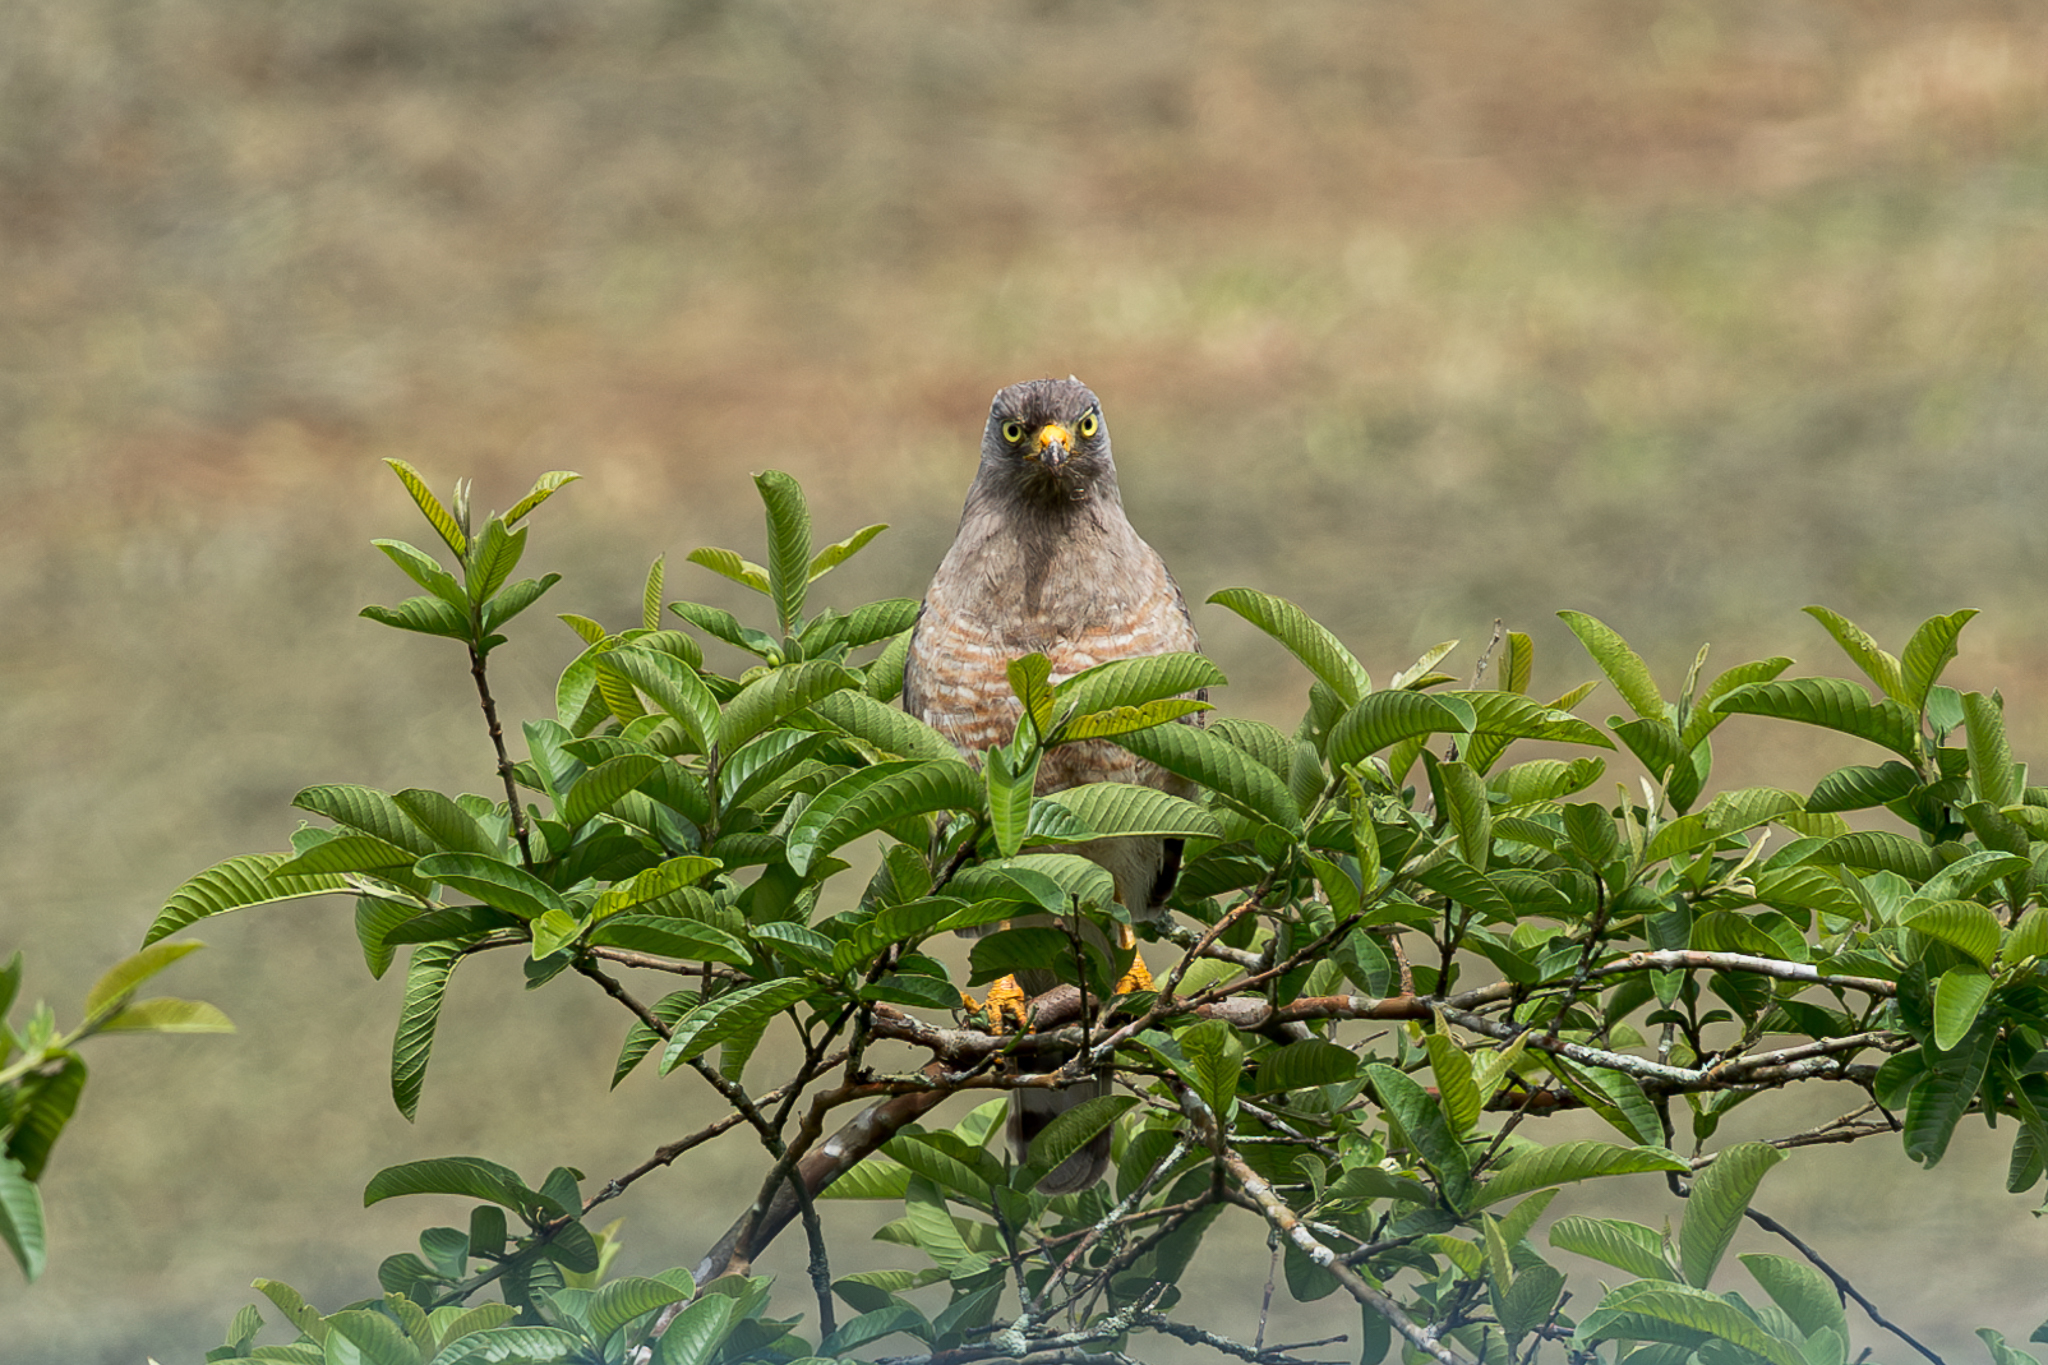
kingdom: Animalia
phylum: Chordata
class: Aves
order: Accipitriformes
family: Accipitridae
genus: Rupornis
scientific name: Rupornis magnirostris
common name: Roadside hawk
